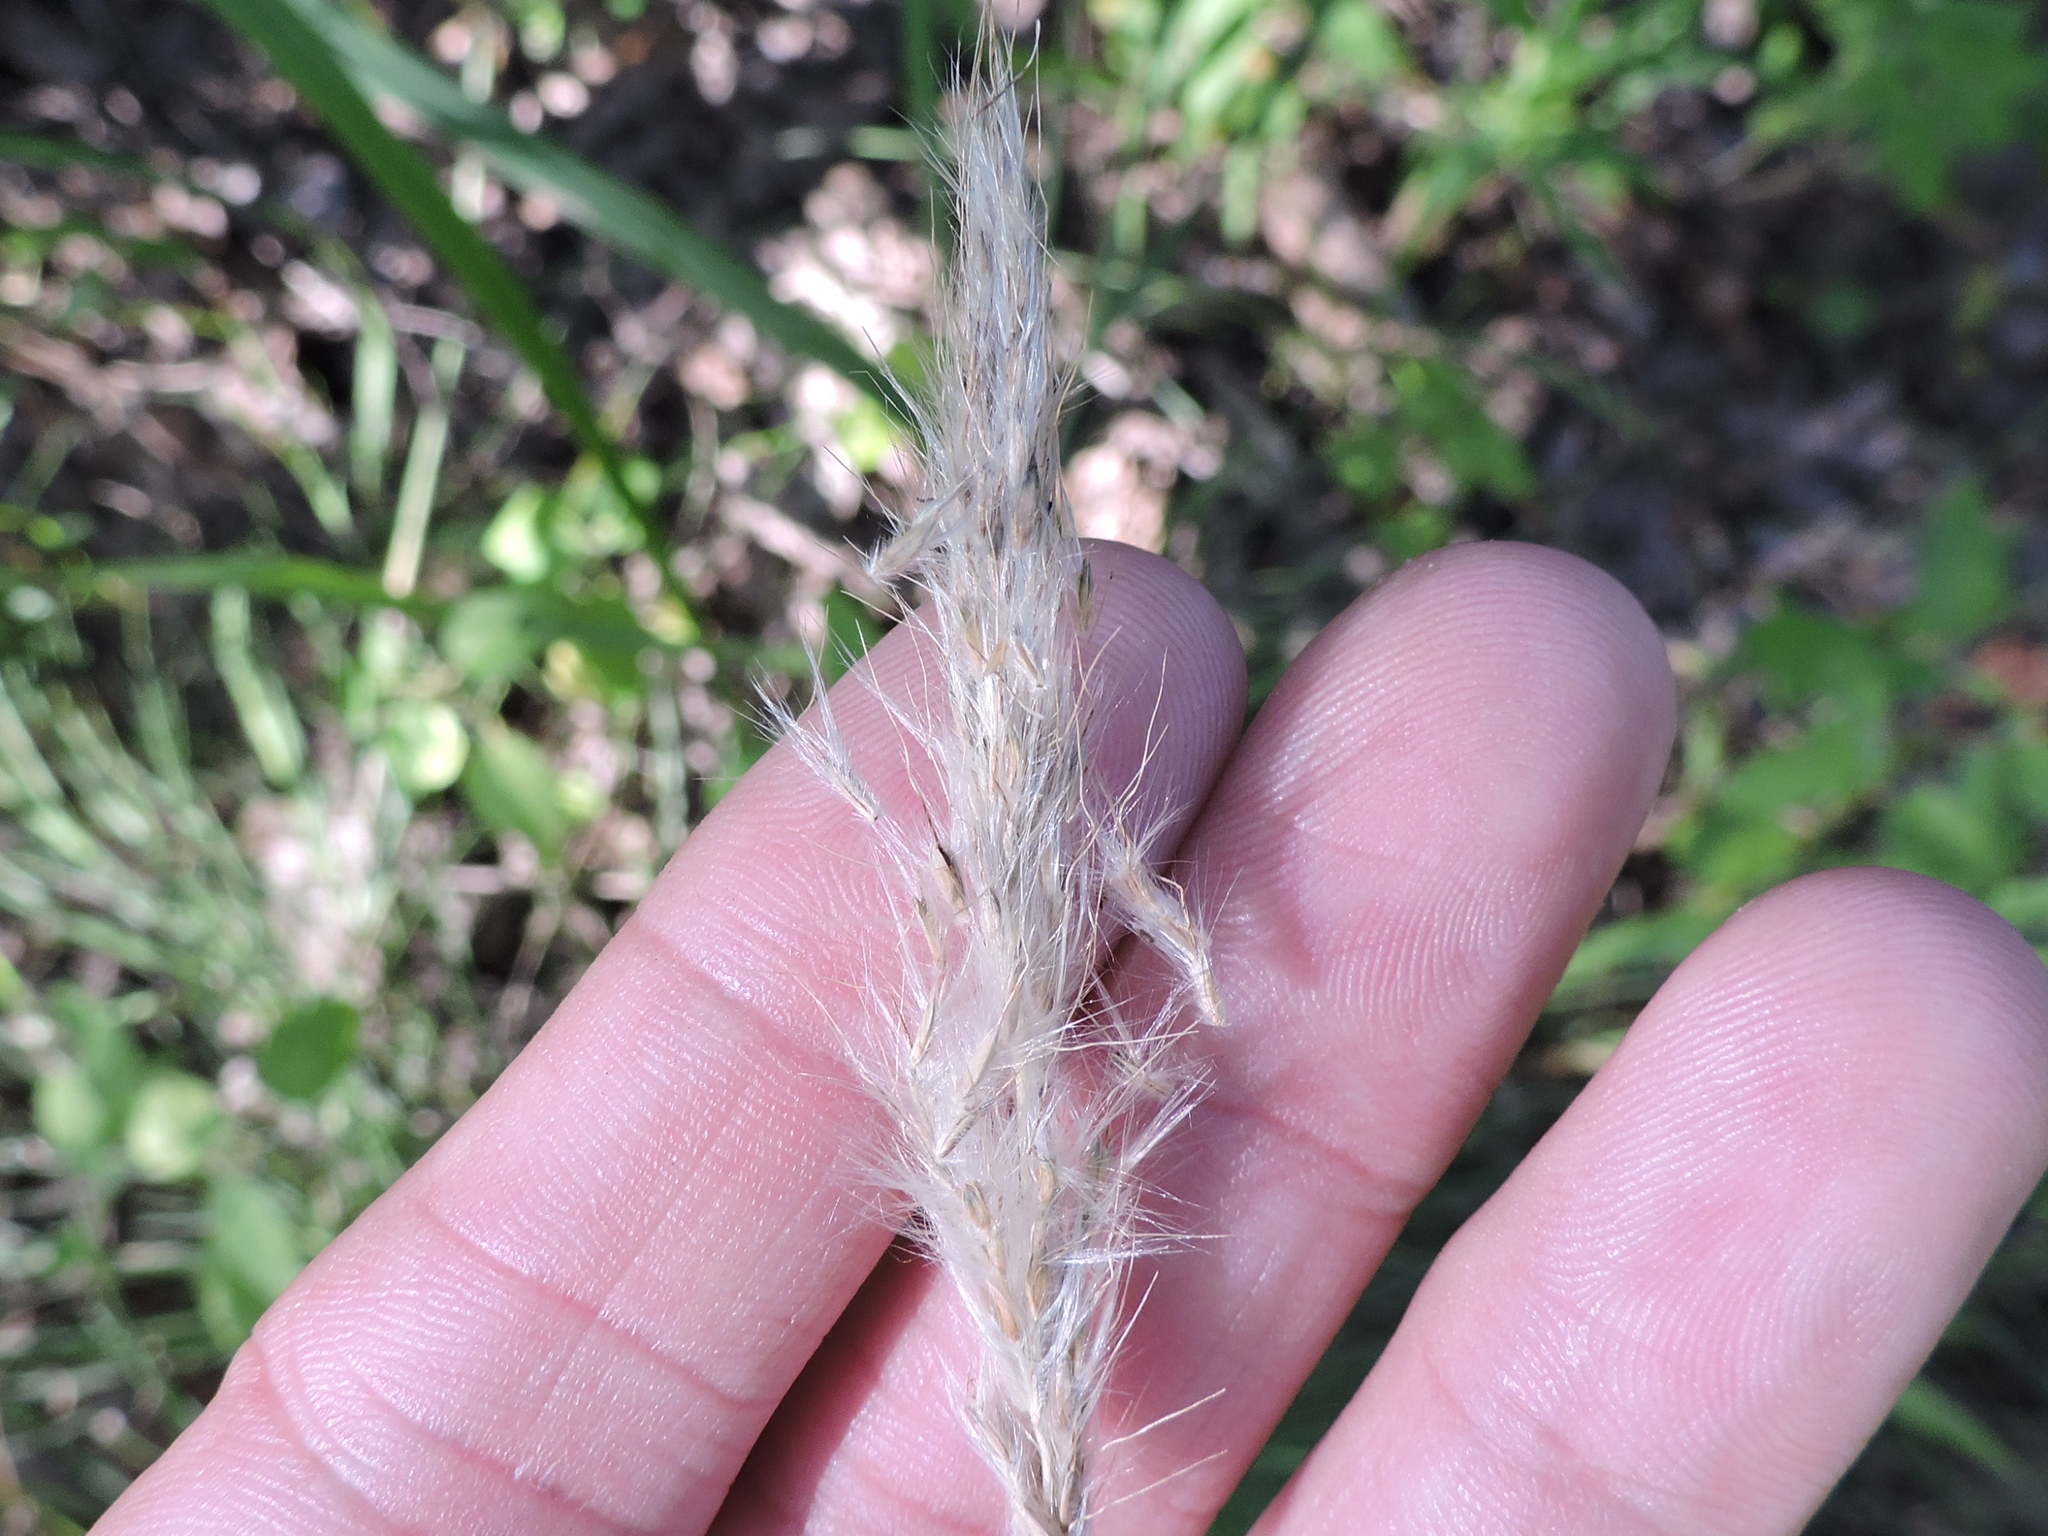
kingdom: Plantae
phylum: Tracheophyta
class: Liliopsida
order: Poales
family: Poaceae
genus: Bothriochloa
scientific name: Bothriochloa torreyana
